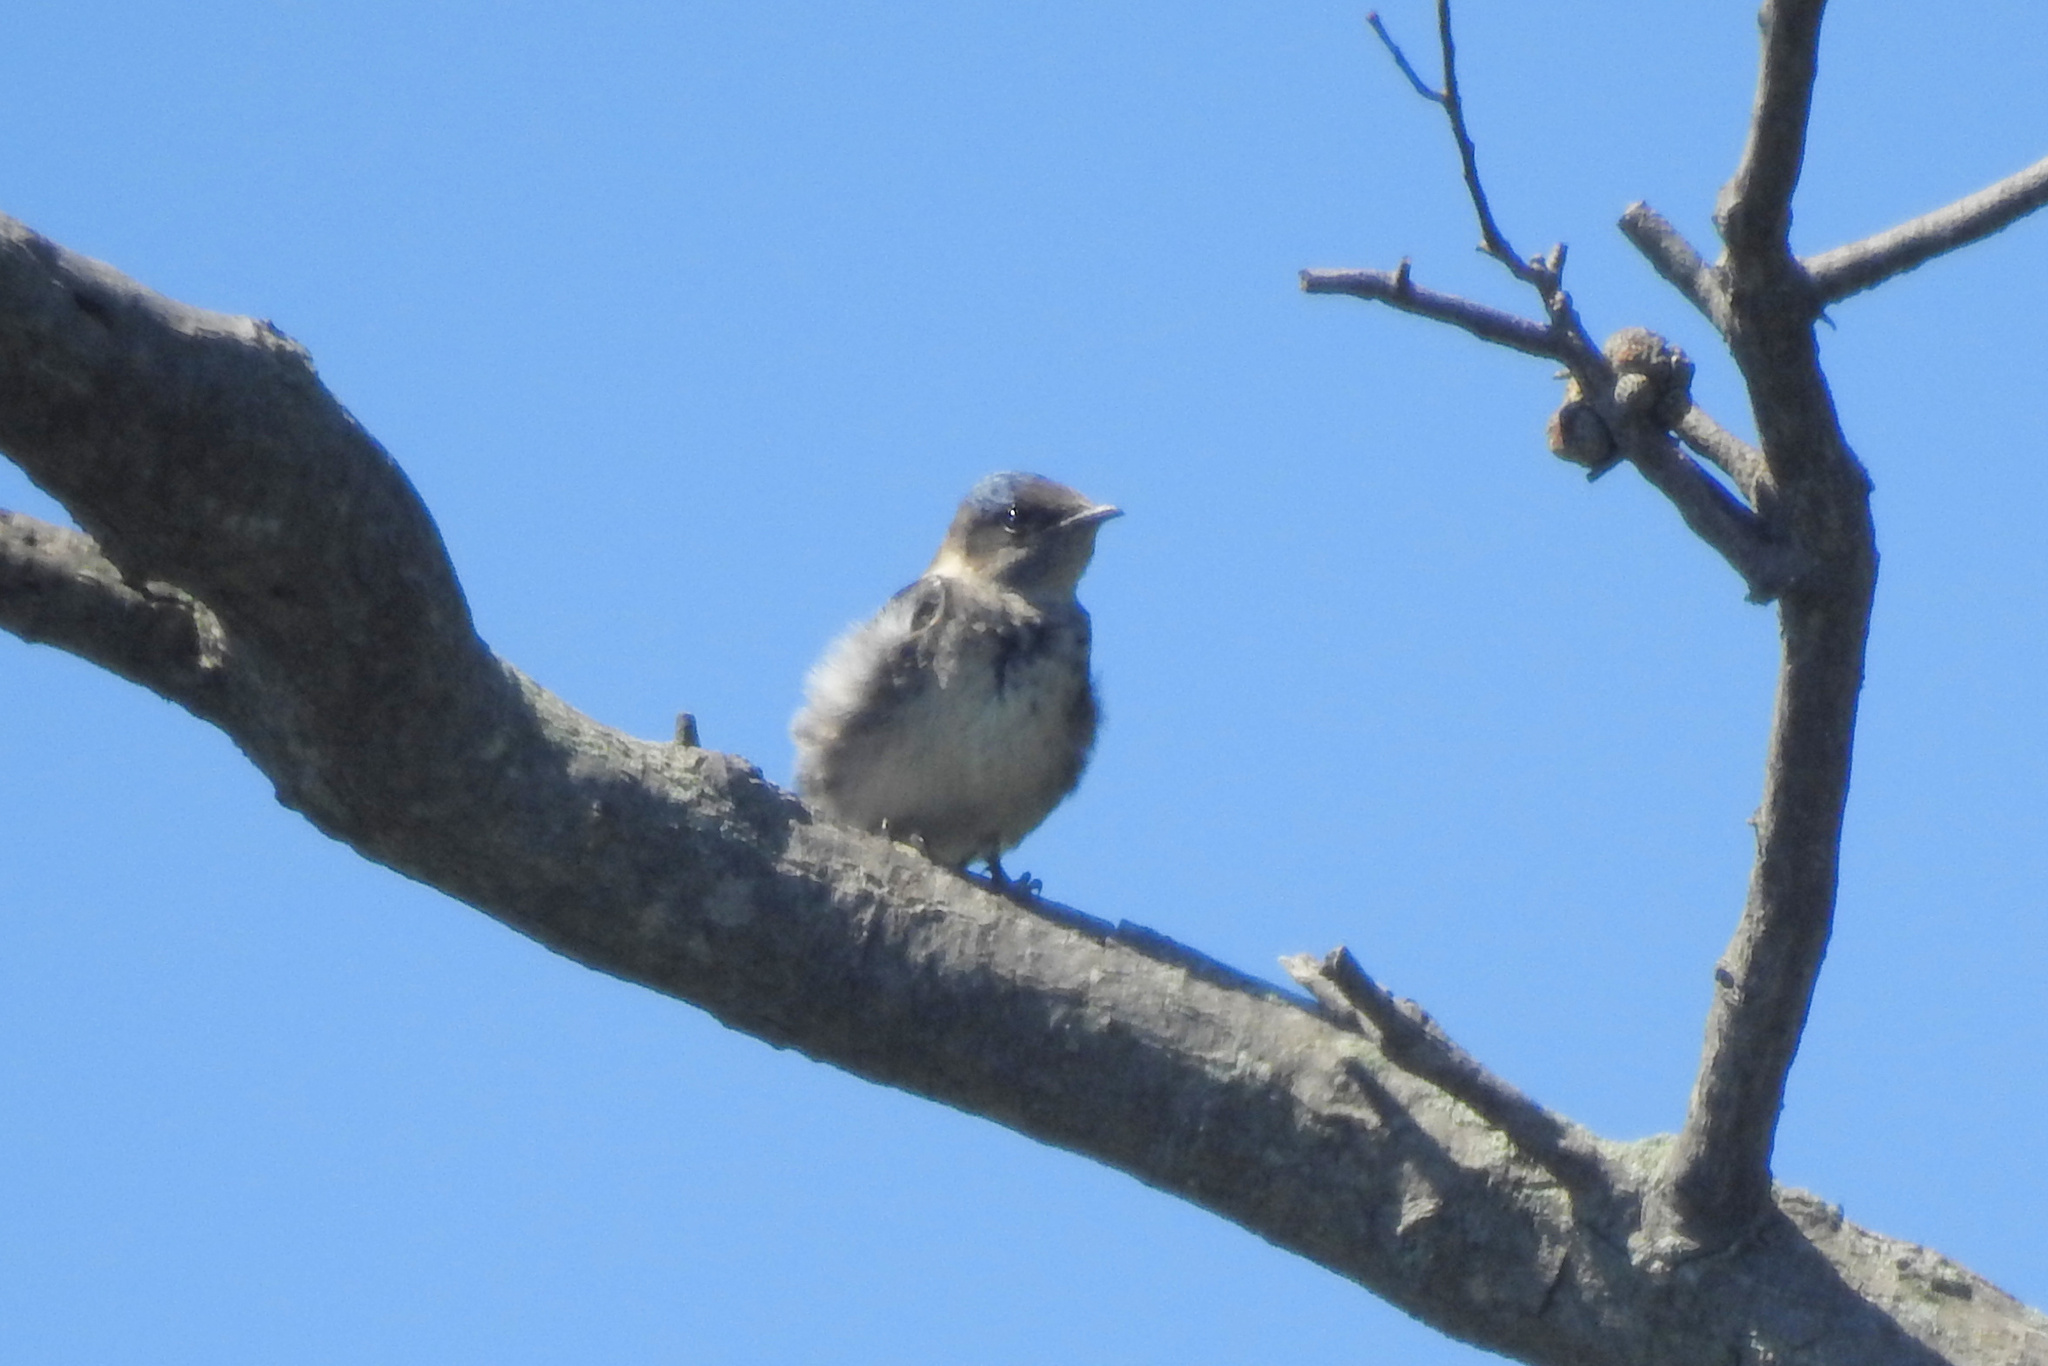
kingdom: Animalia
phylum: Chordata
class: Aves
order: Passeriformes
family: Hirundinidae
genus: Progne
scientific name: Progne subis
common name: Purple martin
